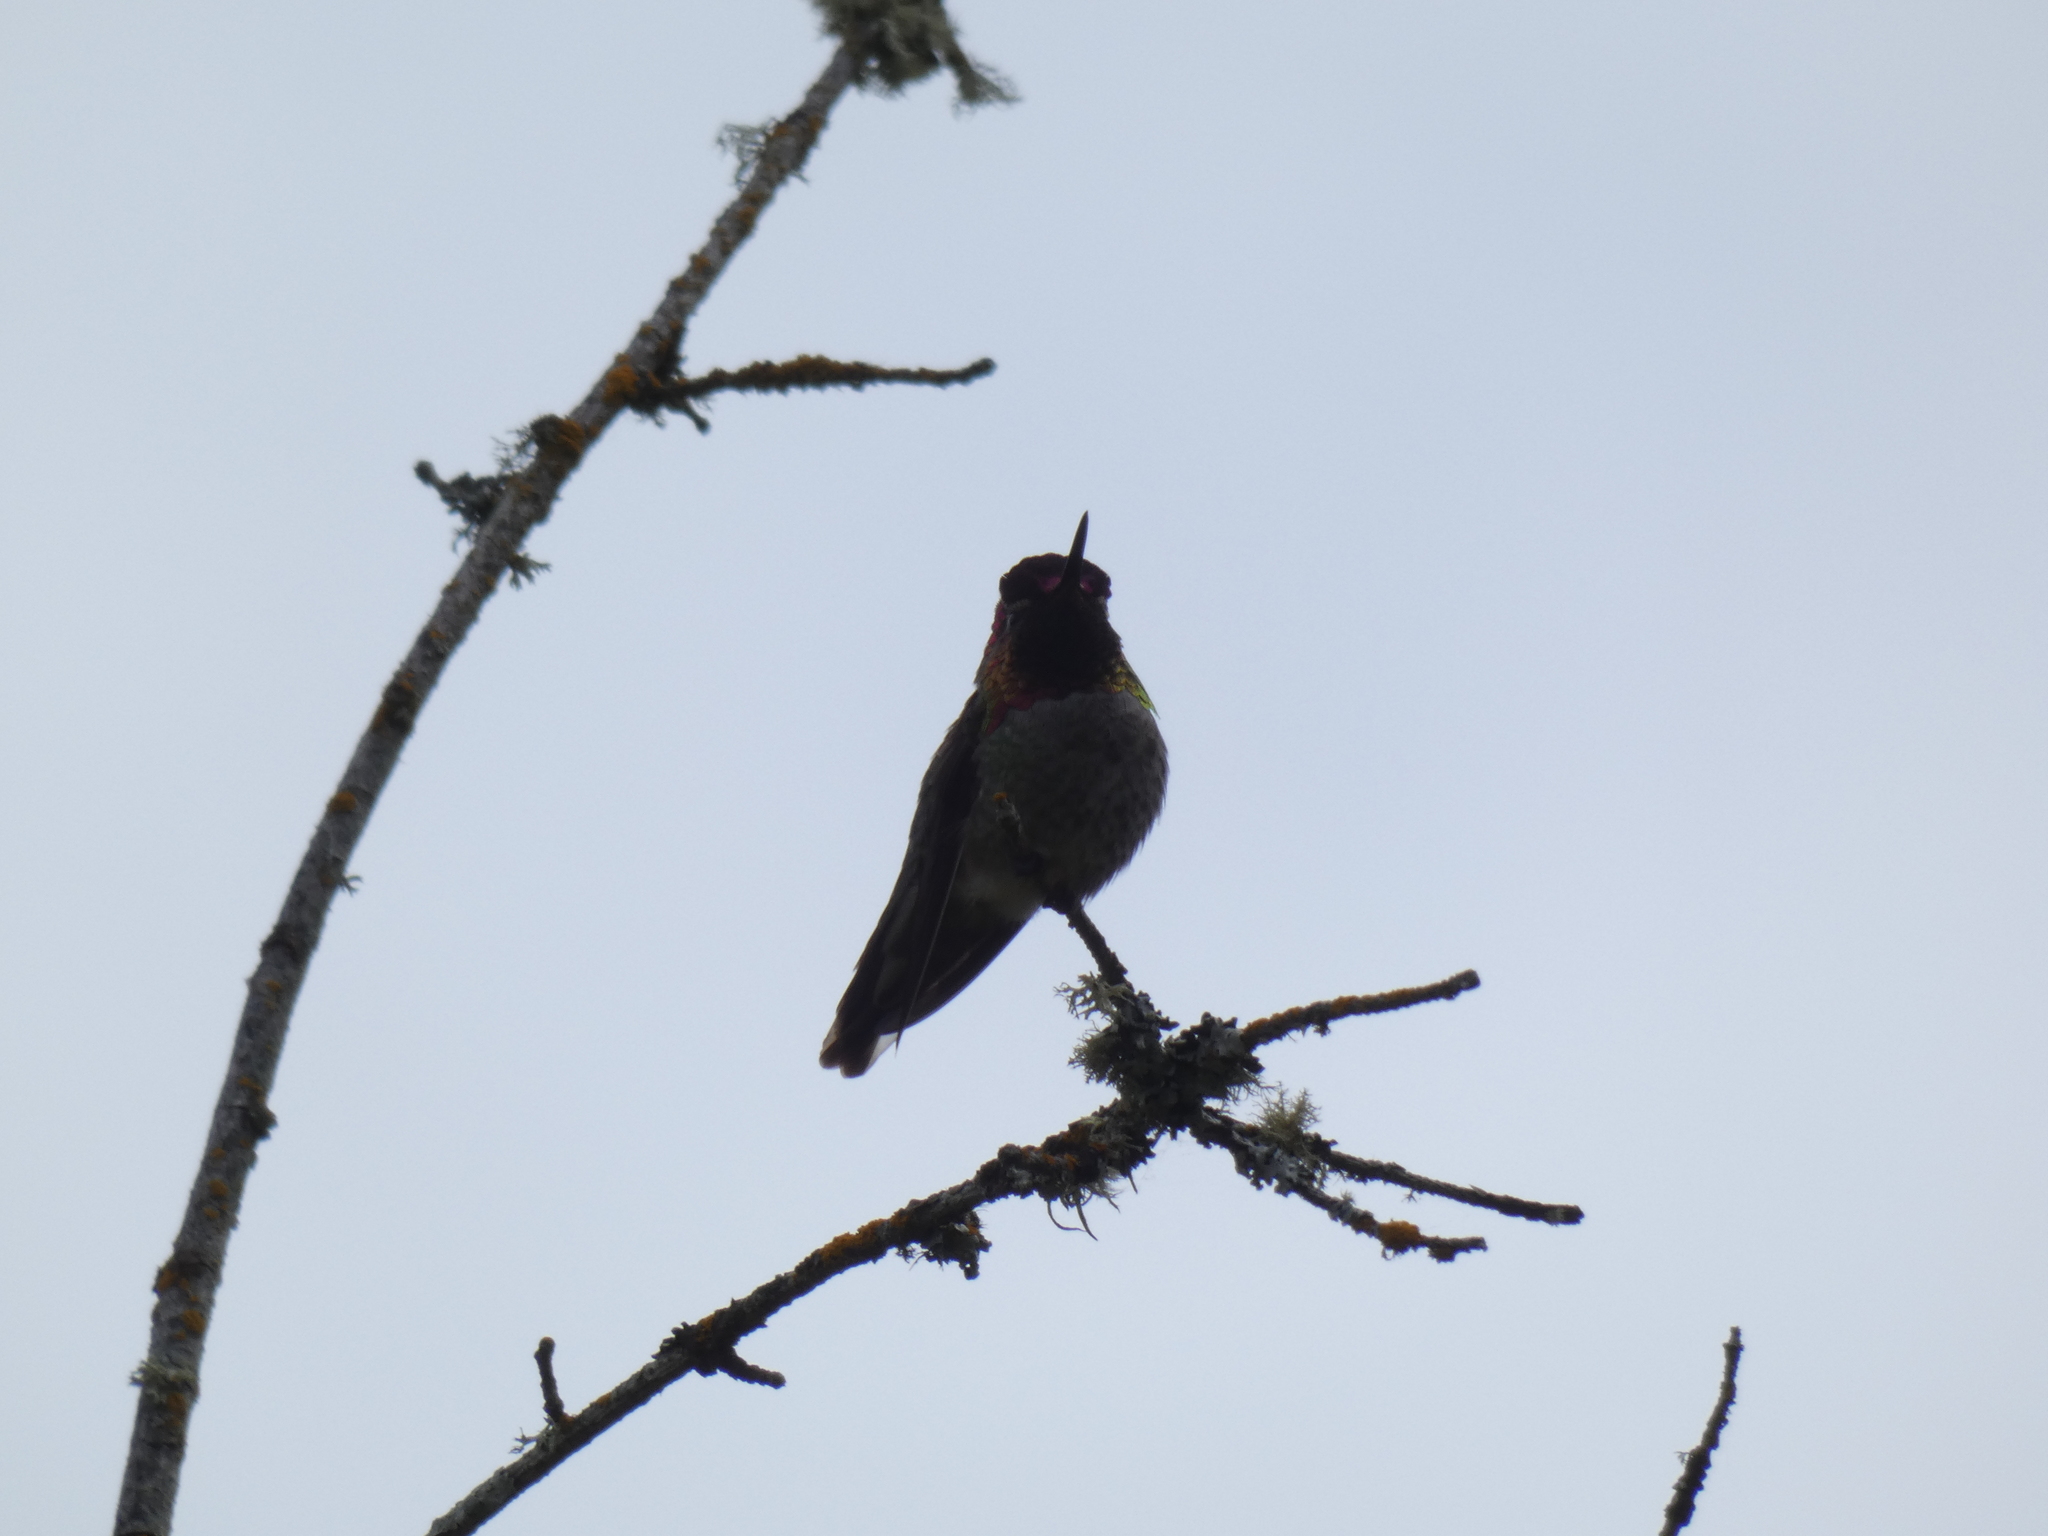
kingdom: Animalia
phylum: Chordata
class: Aves
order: Apodiformes
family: Trochilidae
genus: Calypte
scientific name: Calypte anna
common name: Anna's hummingbird
